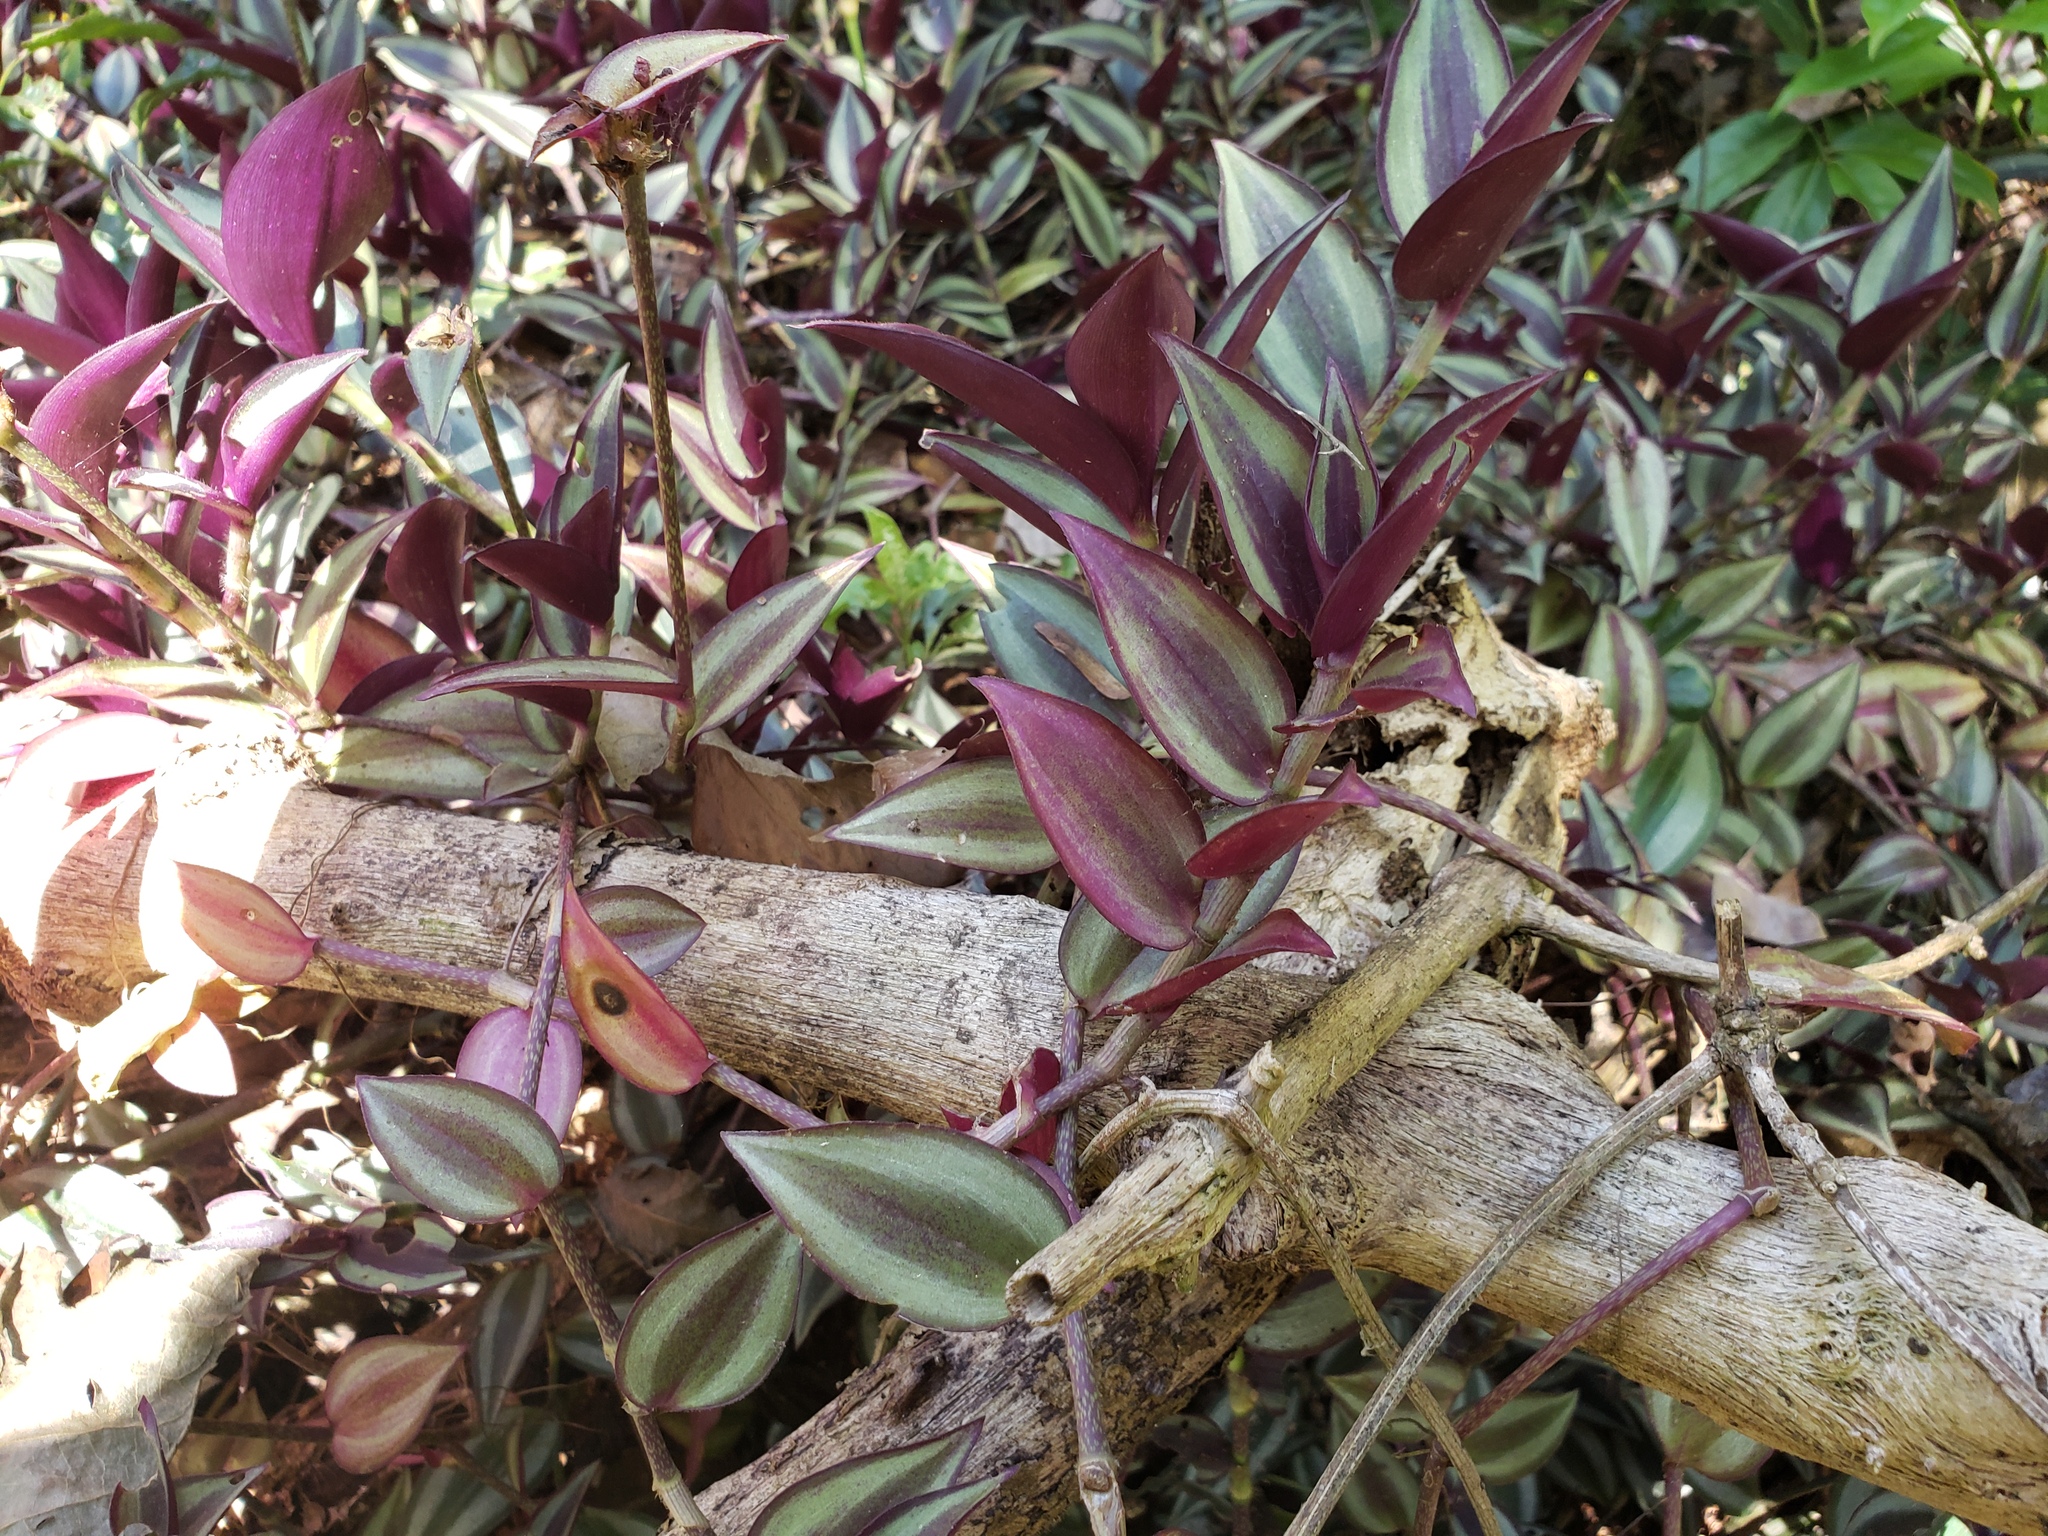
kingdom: Plantae
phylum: Tracheophyta
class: Liliopsida
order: Commelinales
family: Commelinaceae
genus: Tradescantia
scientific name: Tradescantia zebrina
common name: Inchplant
